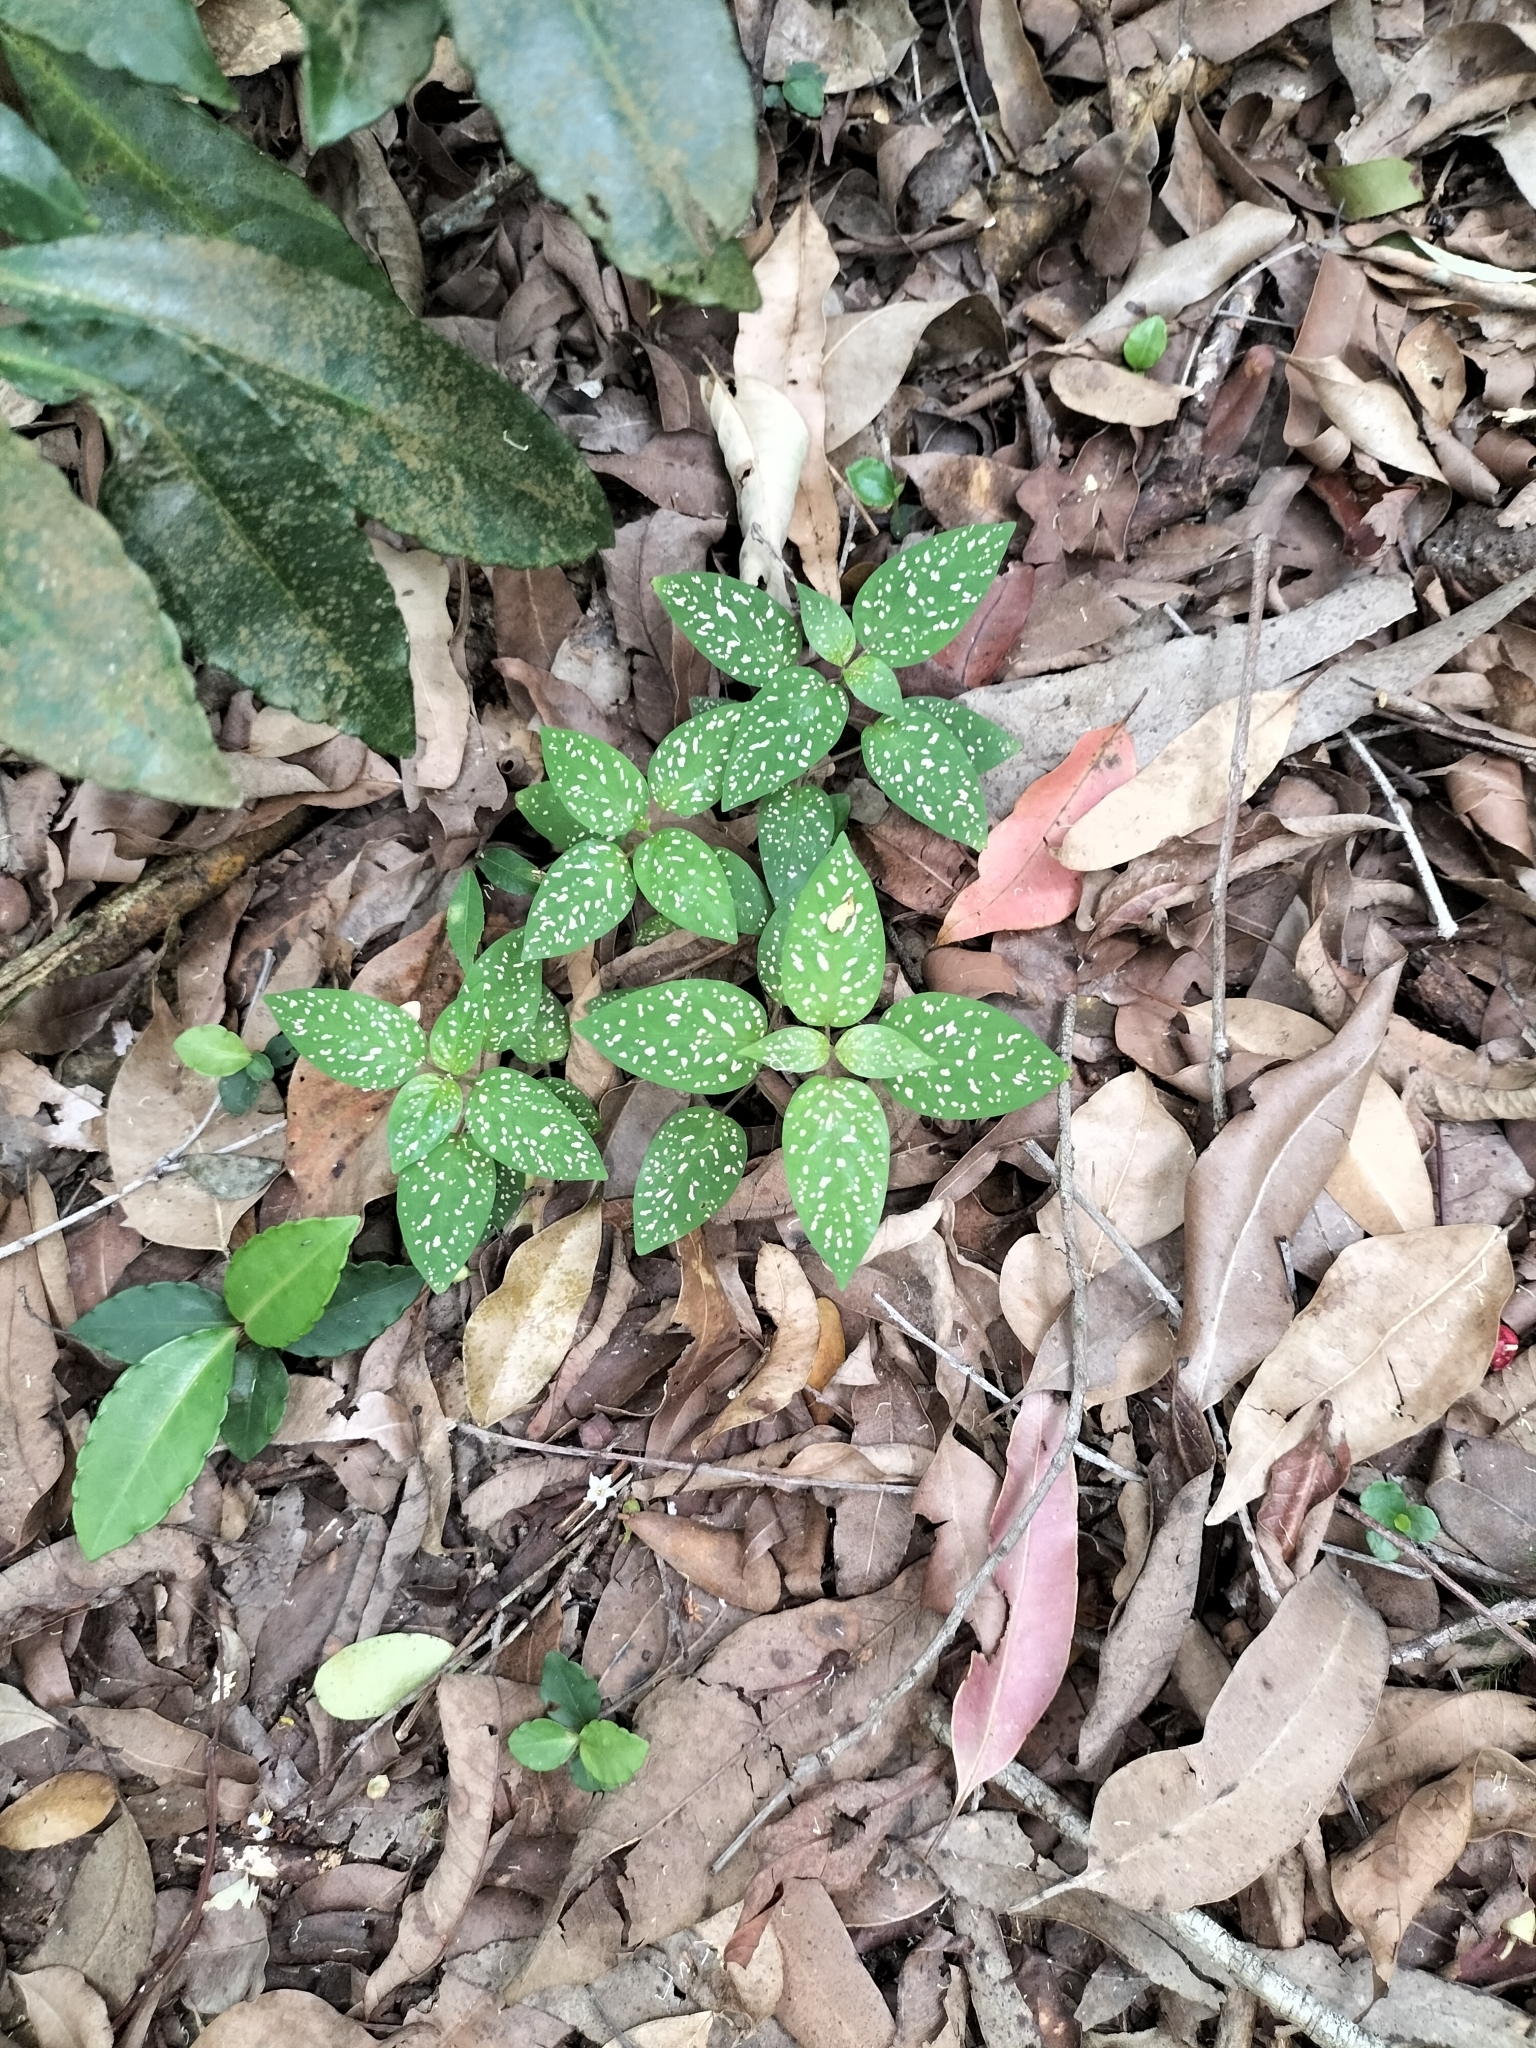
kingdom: Plantae
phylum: Tracheophyta
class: Magnoliopsida
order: Lamiales
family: Acanthaceae
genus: Hypoestes
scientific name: Hypoestes phyllostachya
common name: Polkadot-plant
